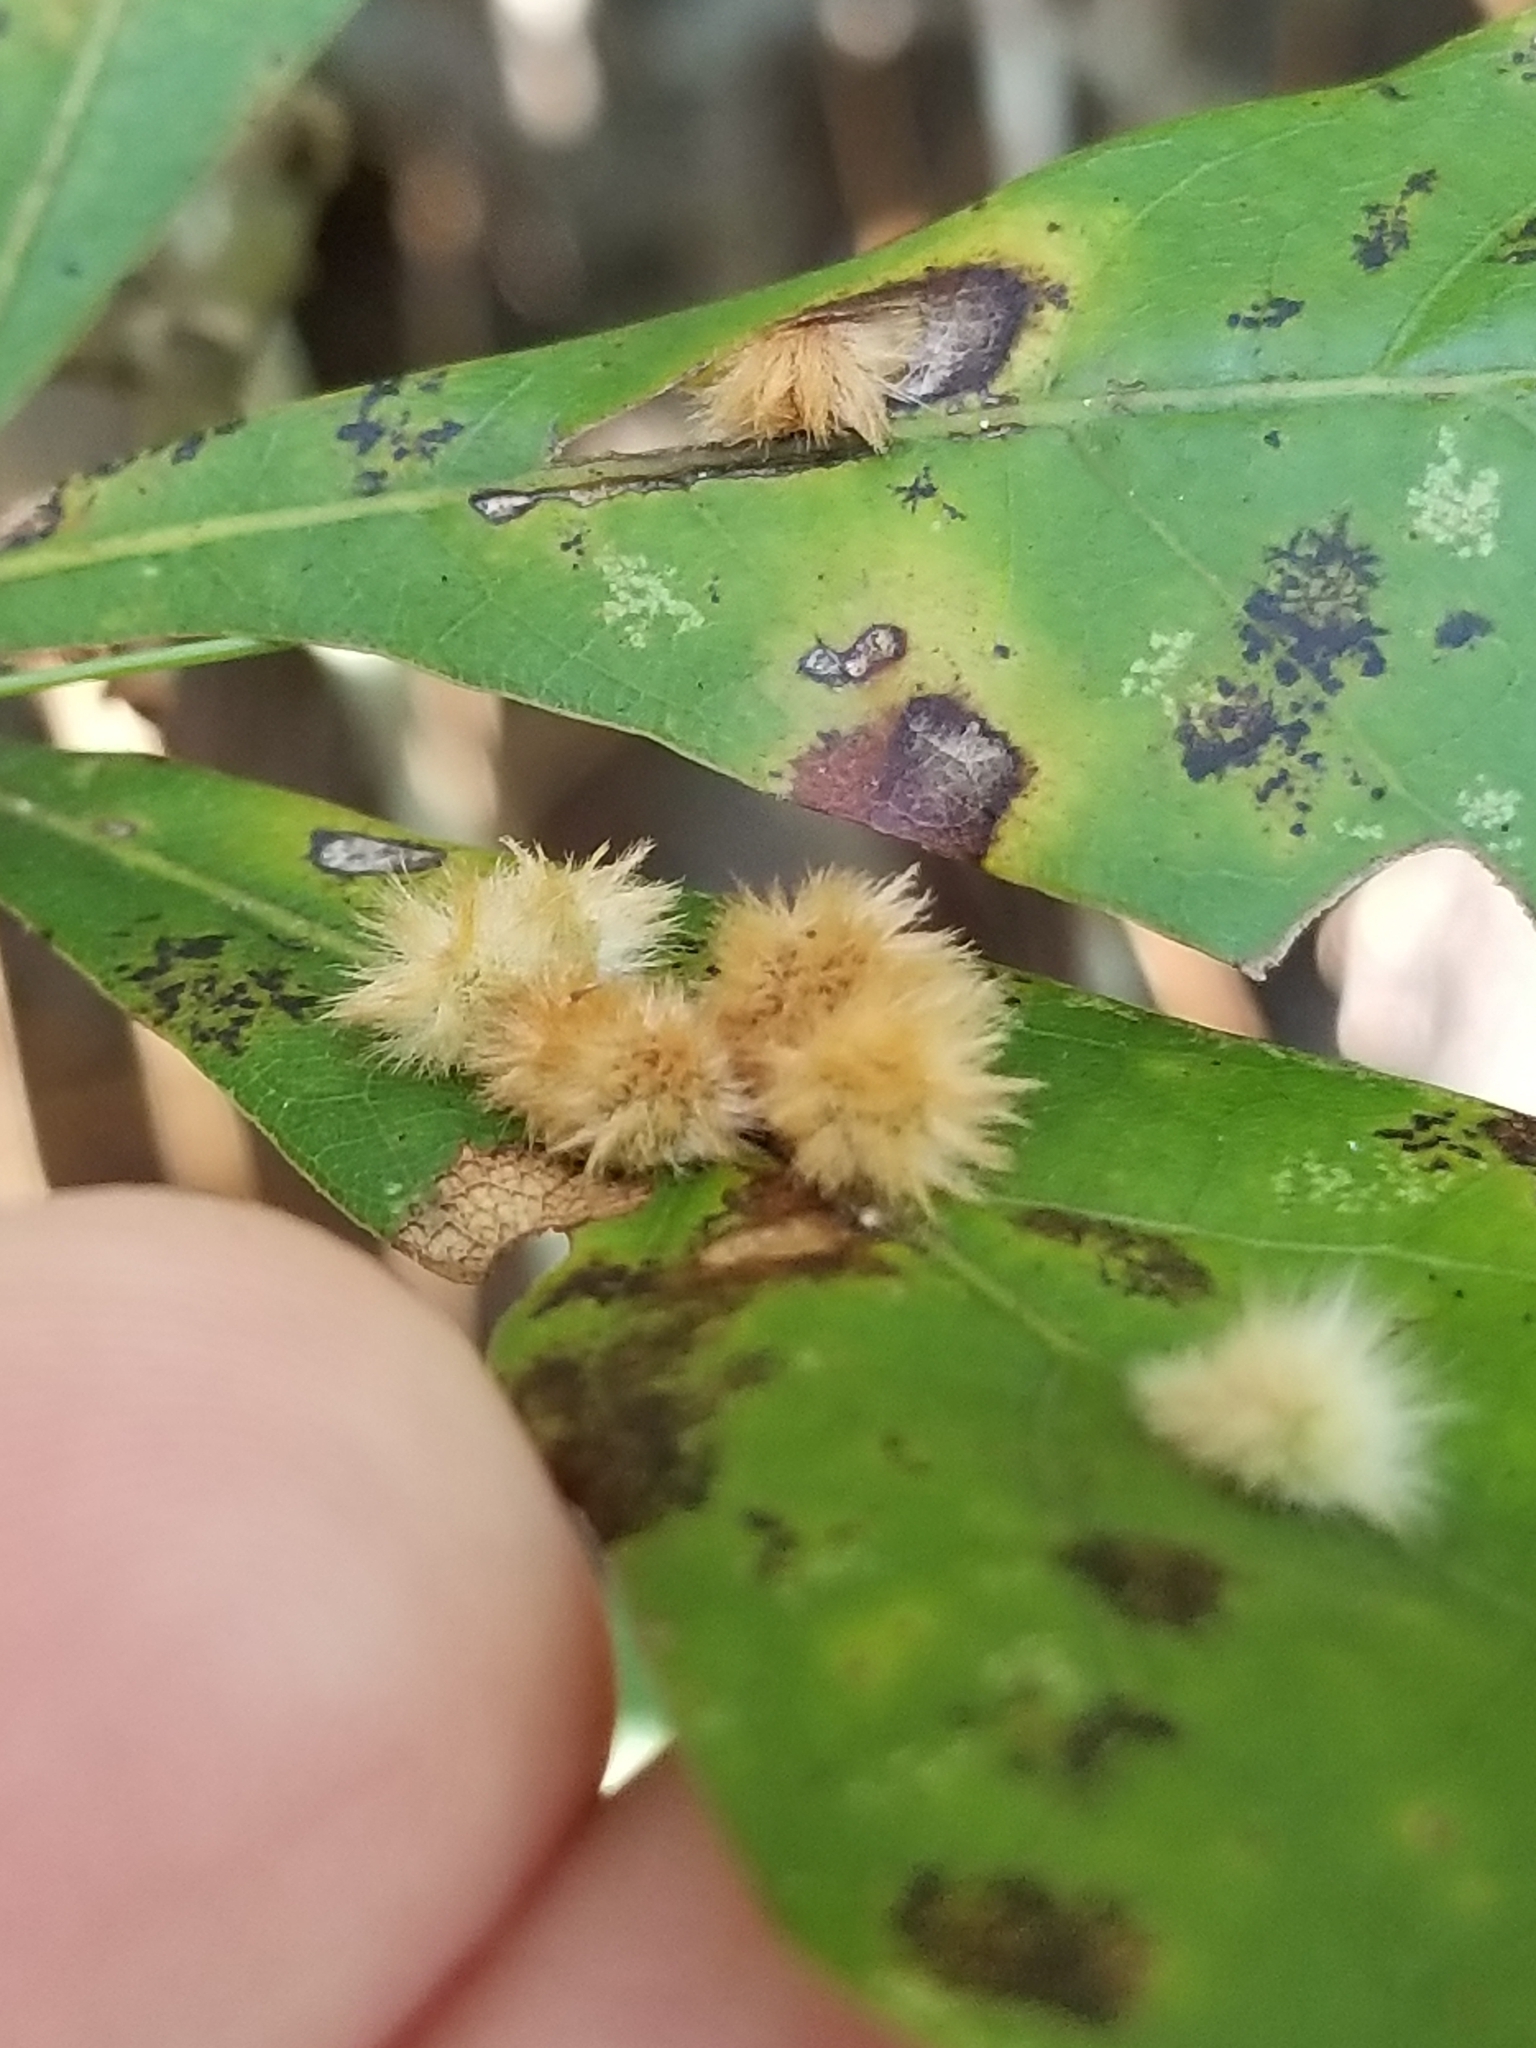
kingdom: Animalia
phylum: Arthropoda
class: Insecta
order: Hymenoptera
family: Cynipidae
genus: Callirhytis
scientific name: Callirhytis
